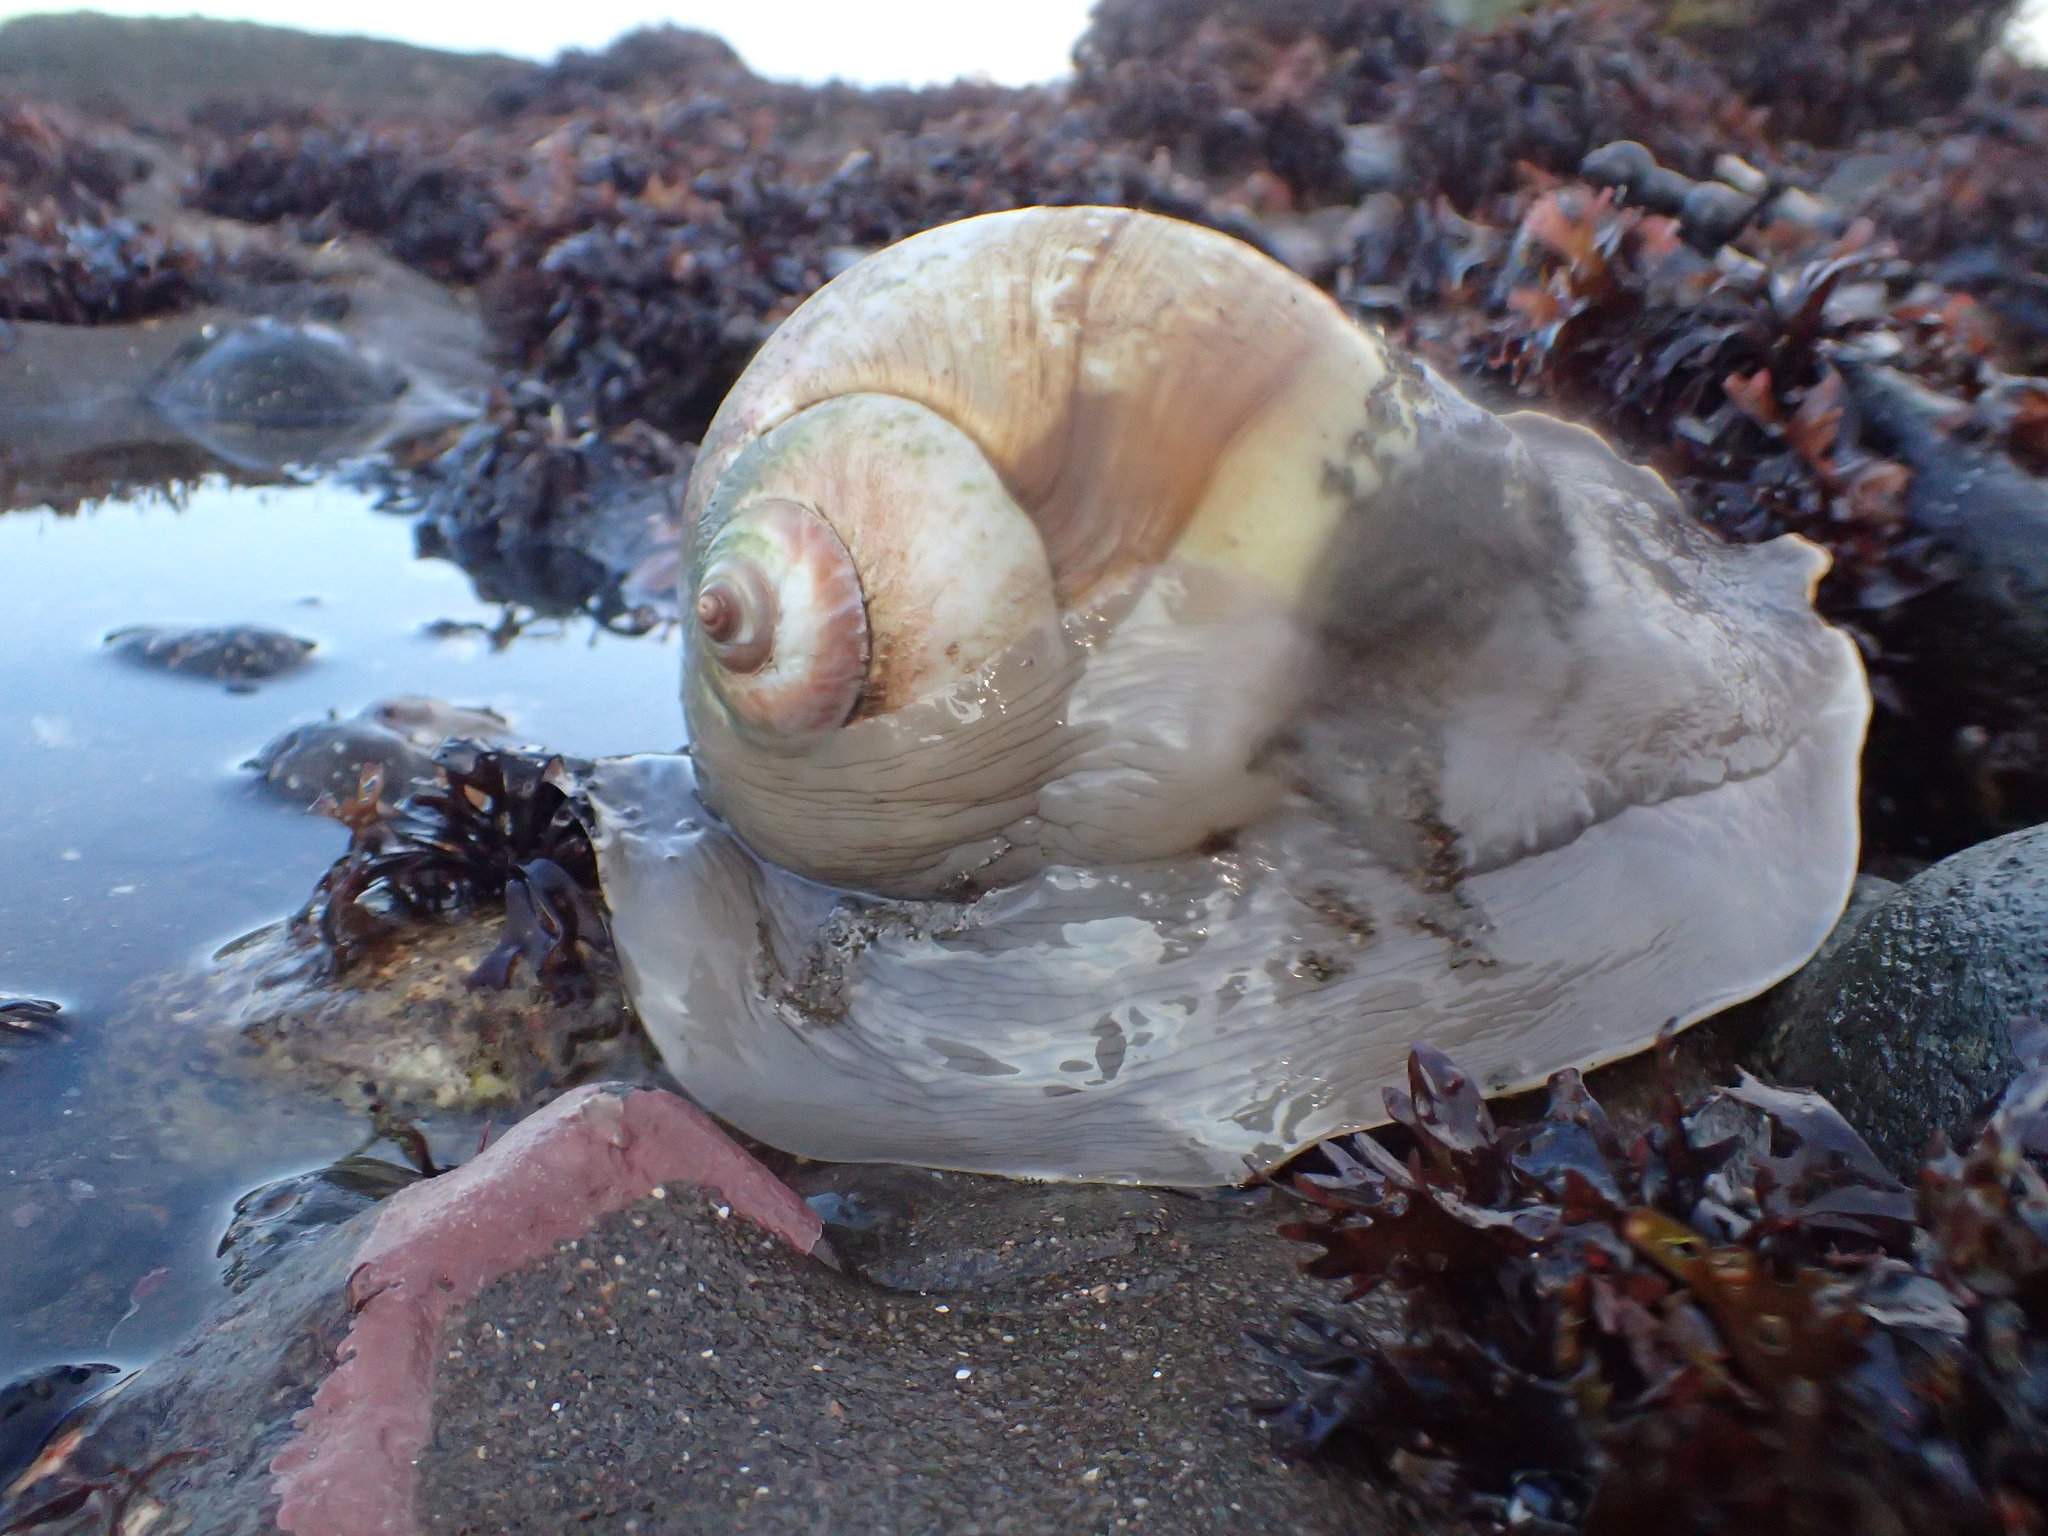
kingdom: Animalia
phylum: Mollusca
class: Gastropoda
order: Littorinimorpha
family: Naticidae
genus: Euspira
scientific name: Euspira heros
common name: Common northern moonsnail
